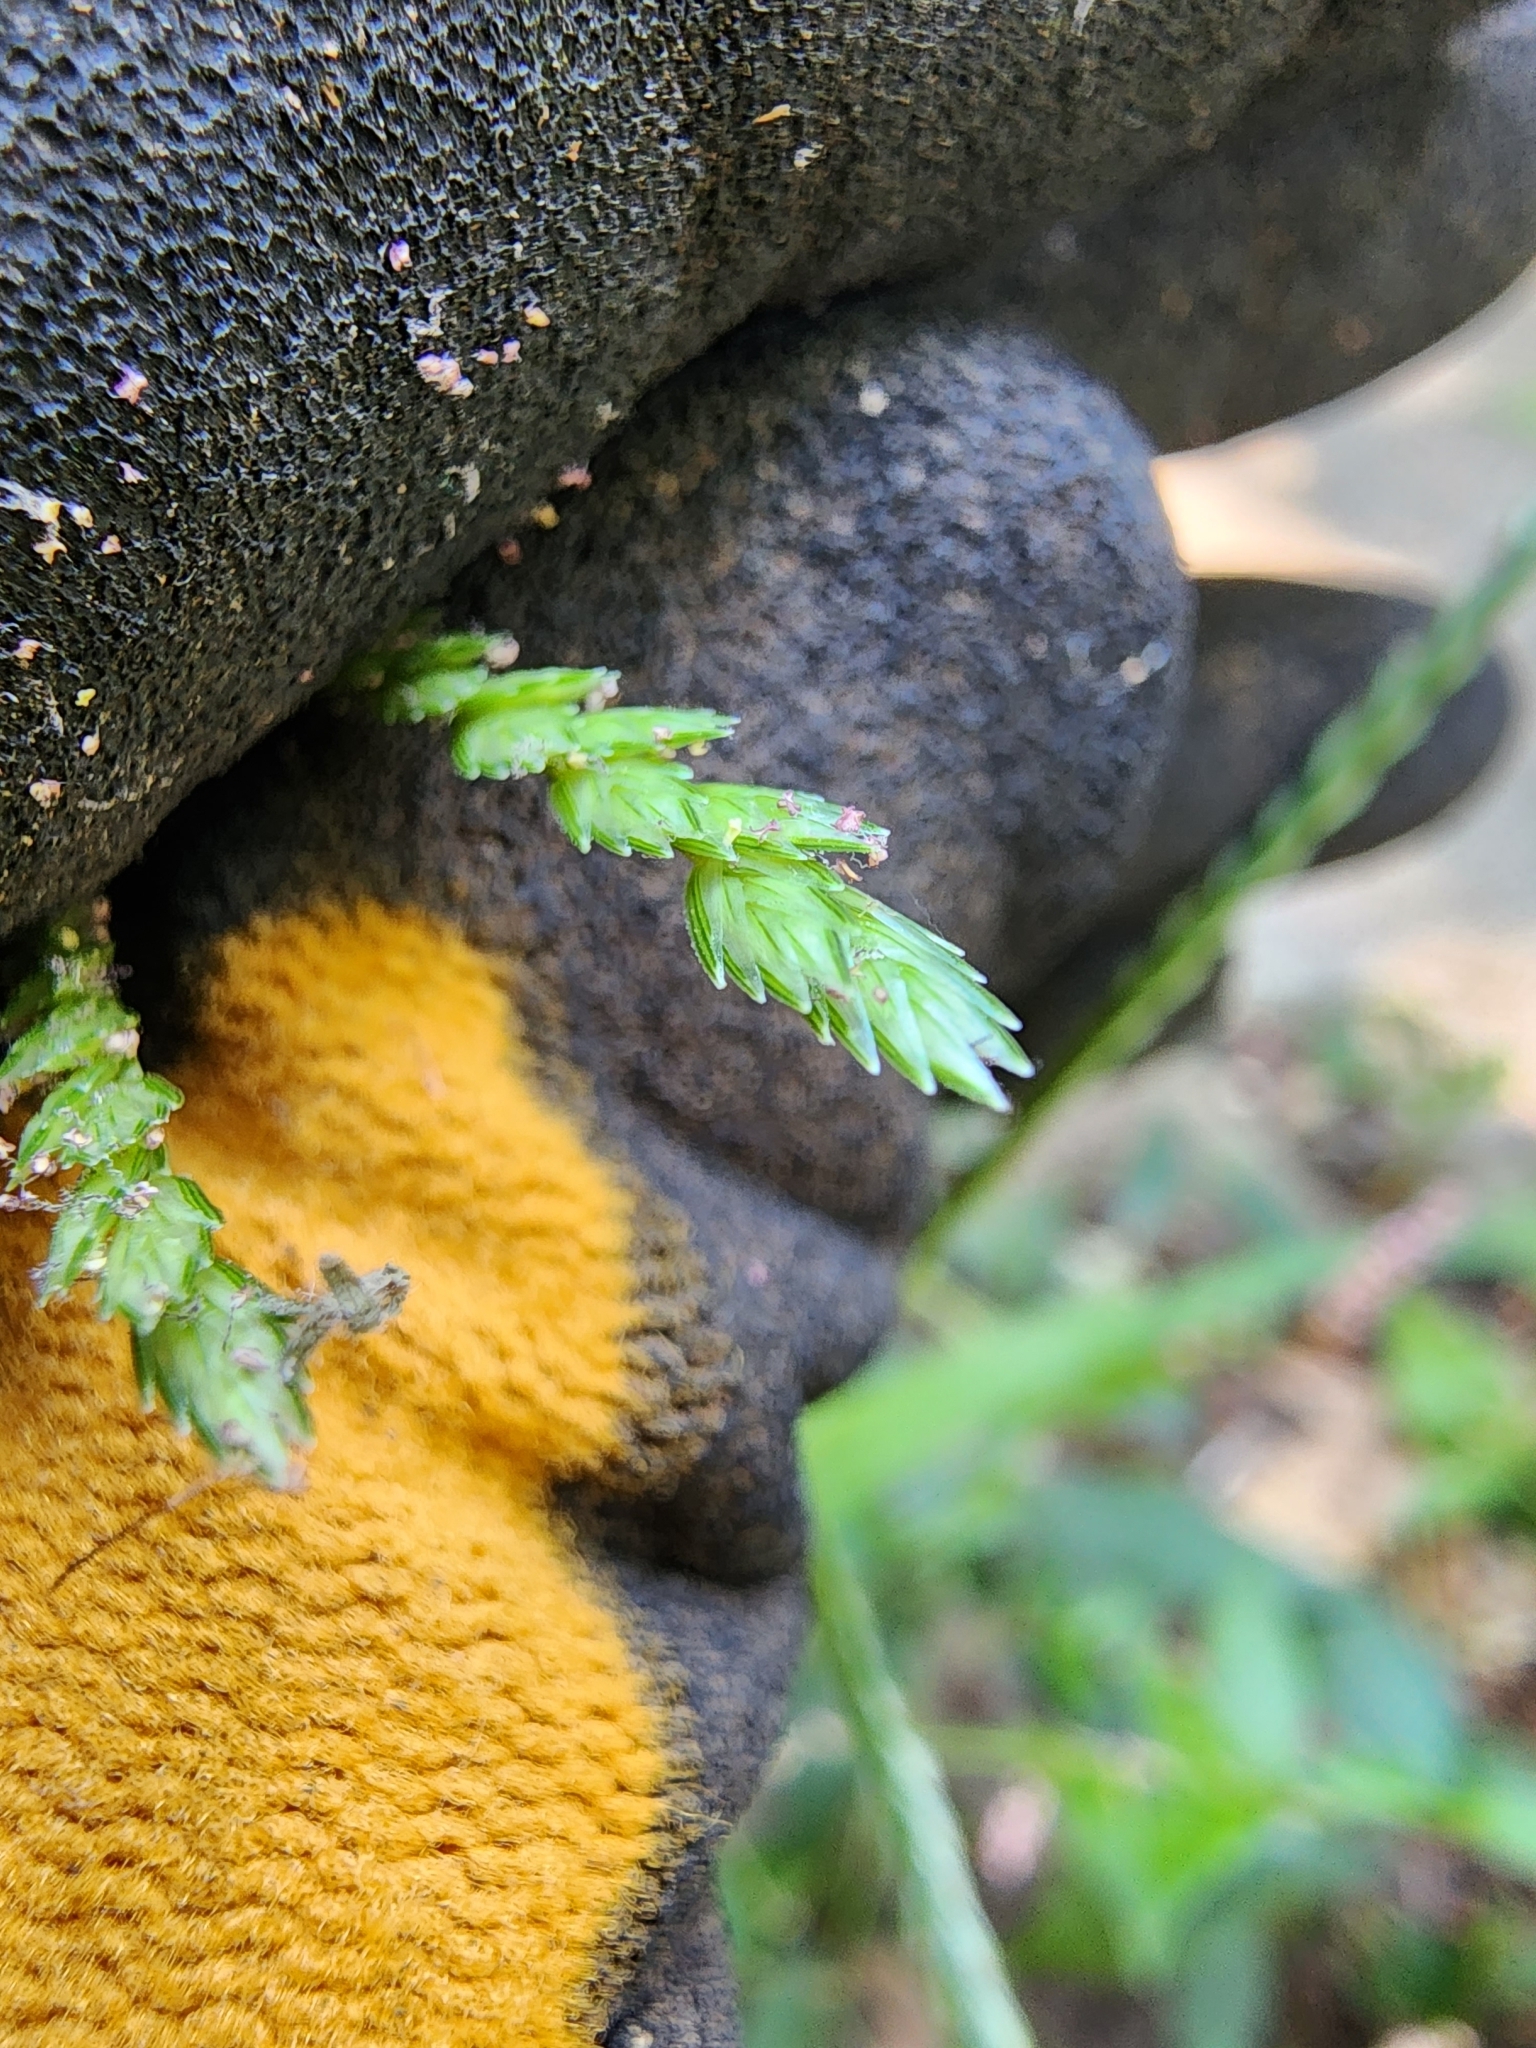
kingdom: Plantae
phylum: Tracheophyta
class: Liliopsida
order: Poales
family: Poaceae
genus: Eleusine
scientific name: Eleusine indica
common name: Yard-grass
